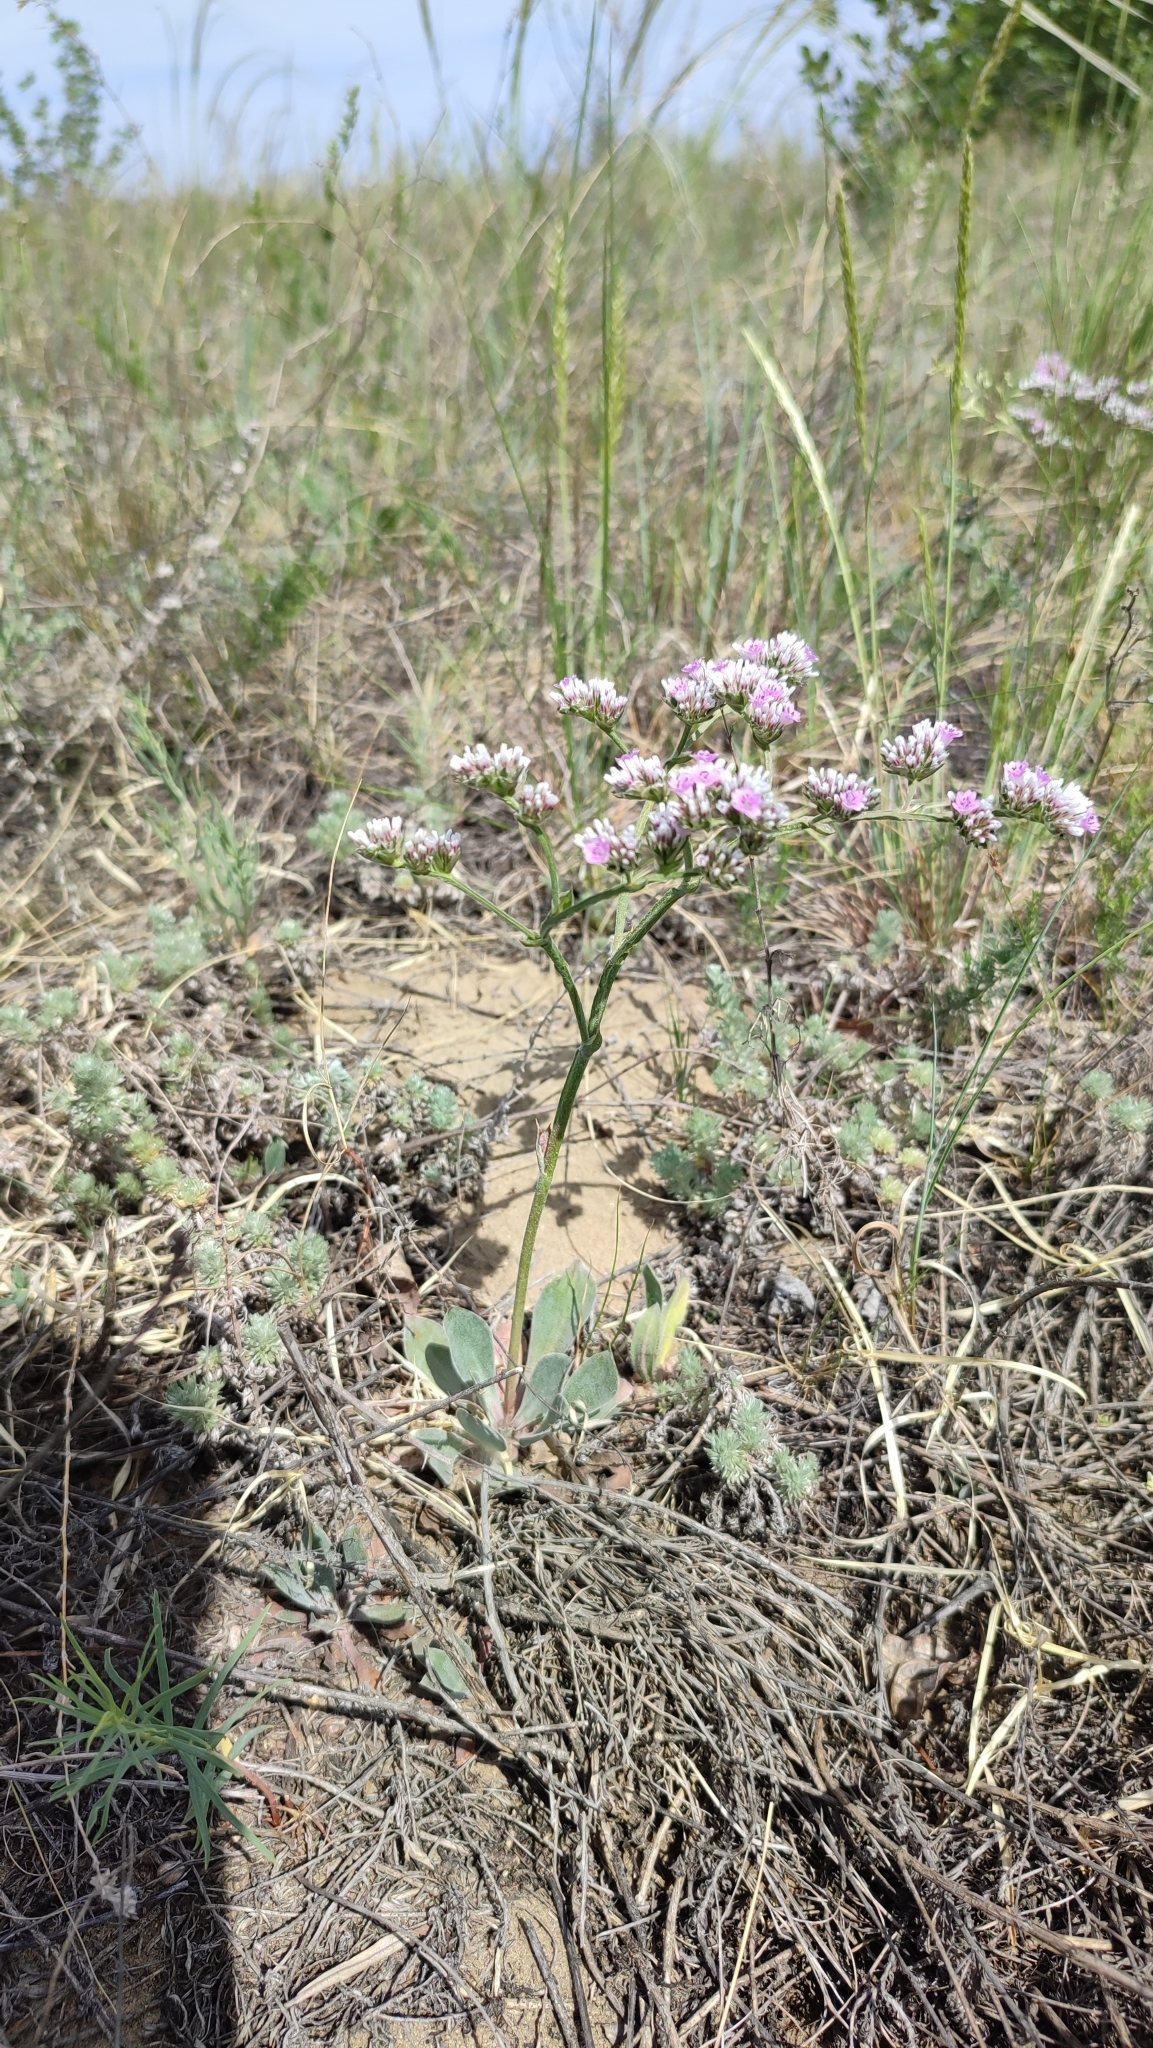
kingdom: Plantae
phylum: Tracheophyta
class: Magnoliopsida
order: Caryophyllales
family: Plumbaginaceae
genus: Goniolimon
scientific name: Goniolimon speciosum
